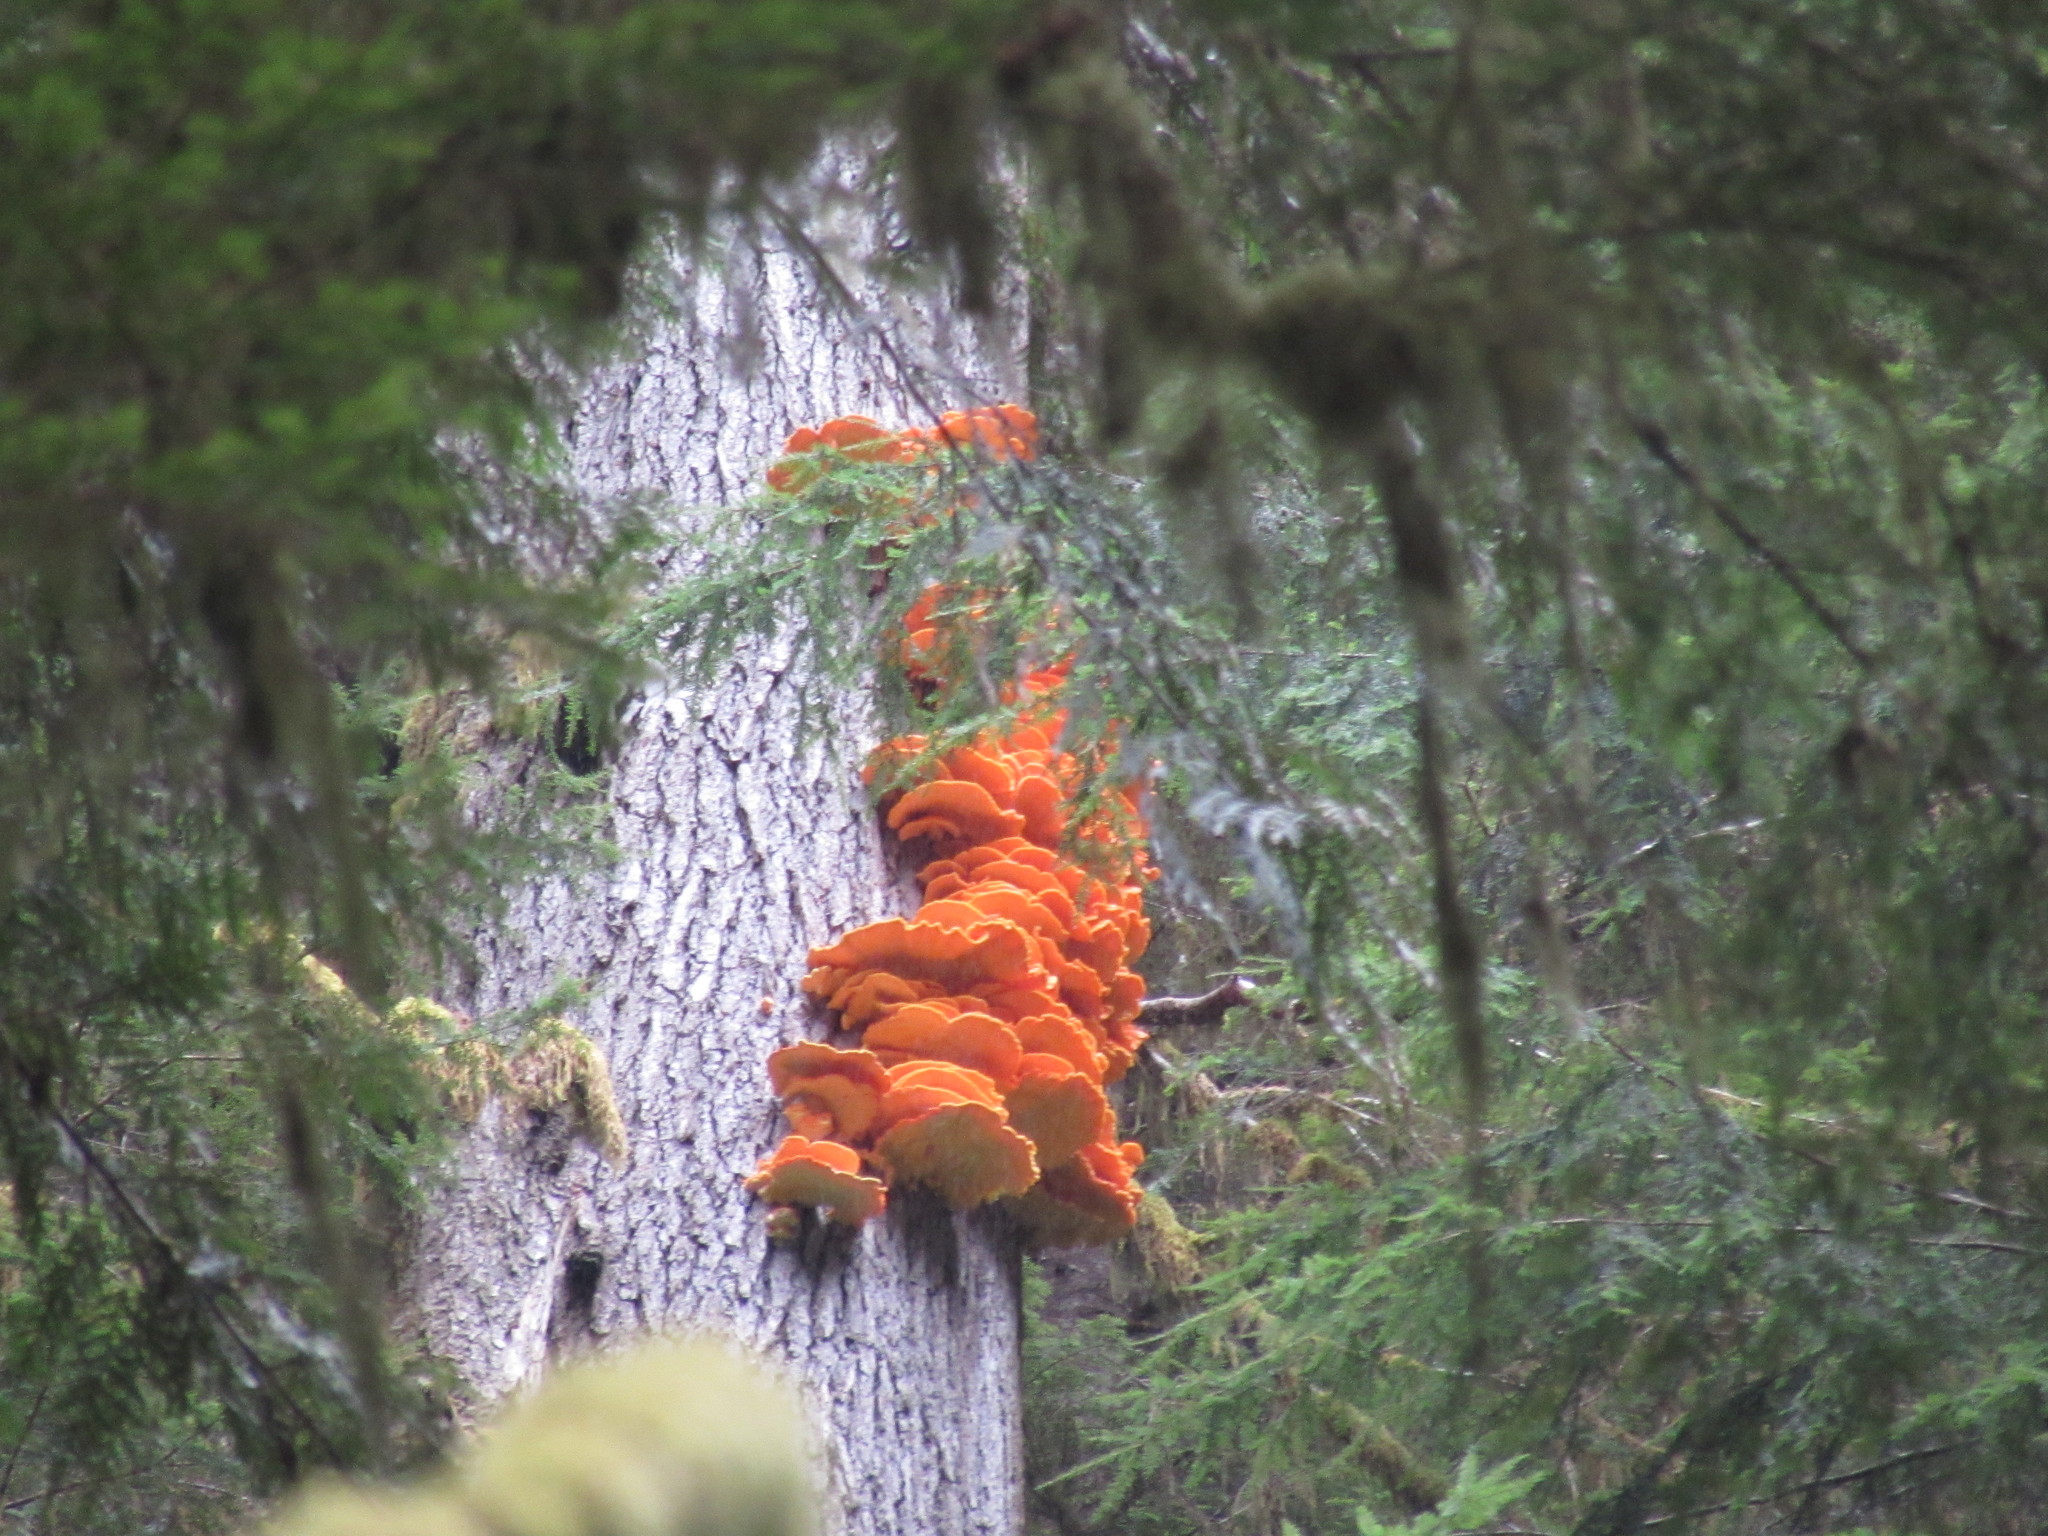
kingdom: Fungi
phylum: Basidiomycota
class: Agaricomycetes
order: Polyporales
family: Laetiporaceae
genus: Laetiporus
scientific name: Laetiporus conifericola
